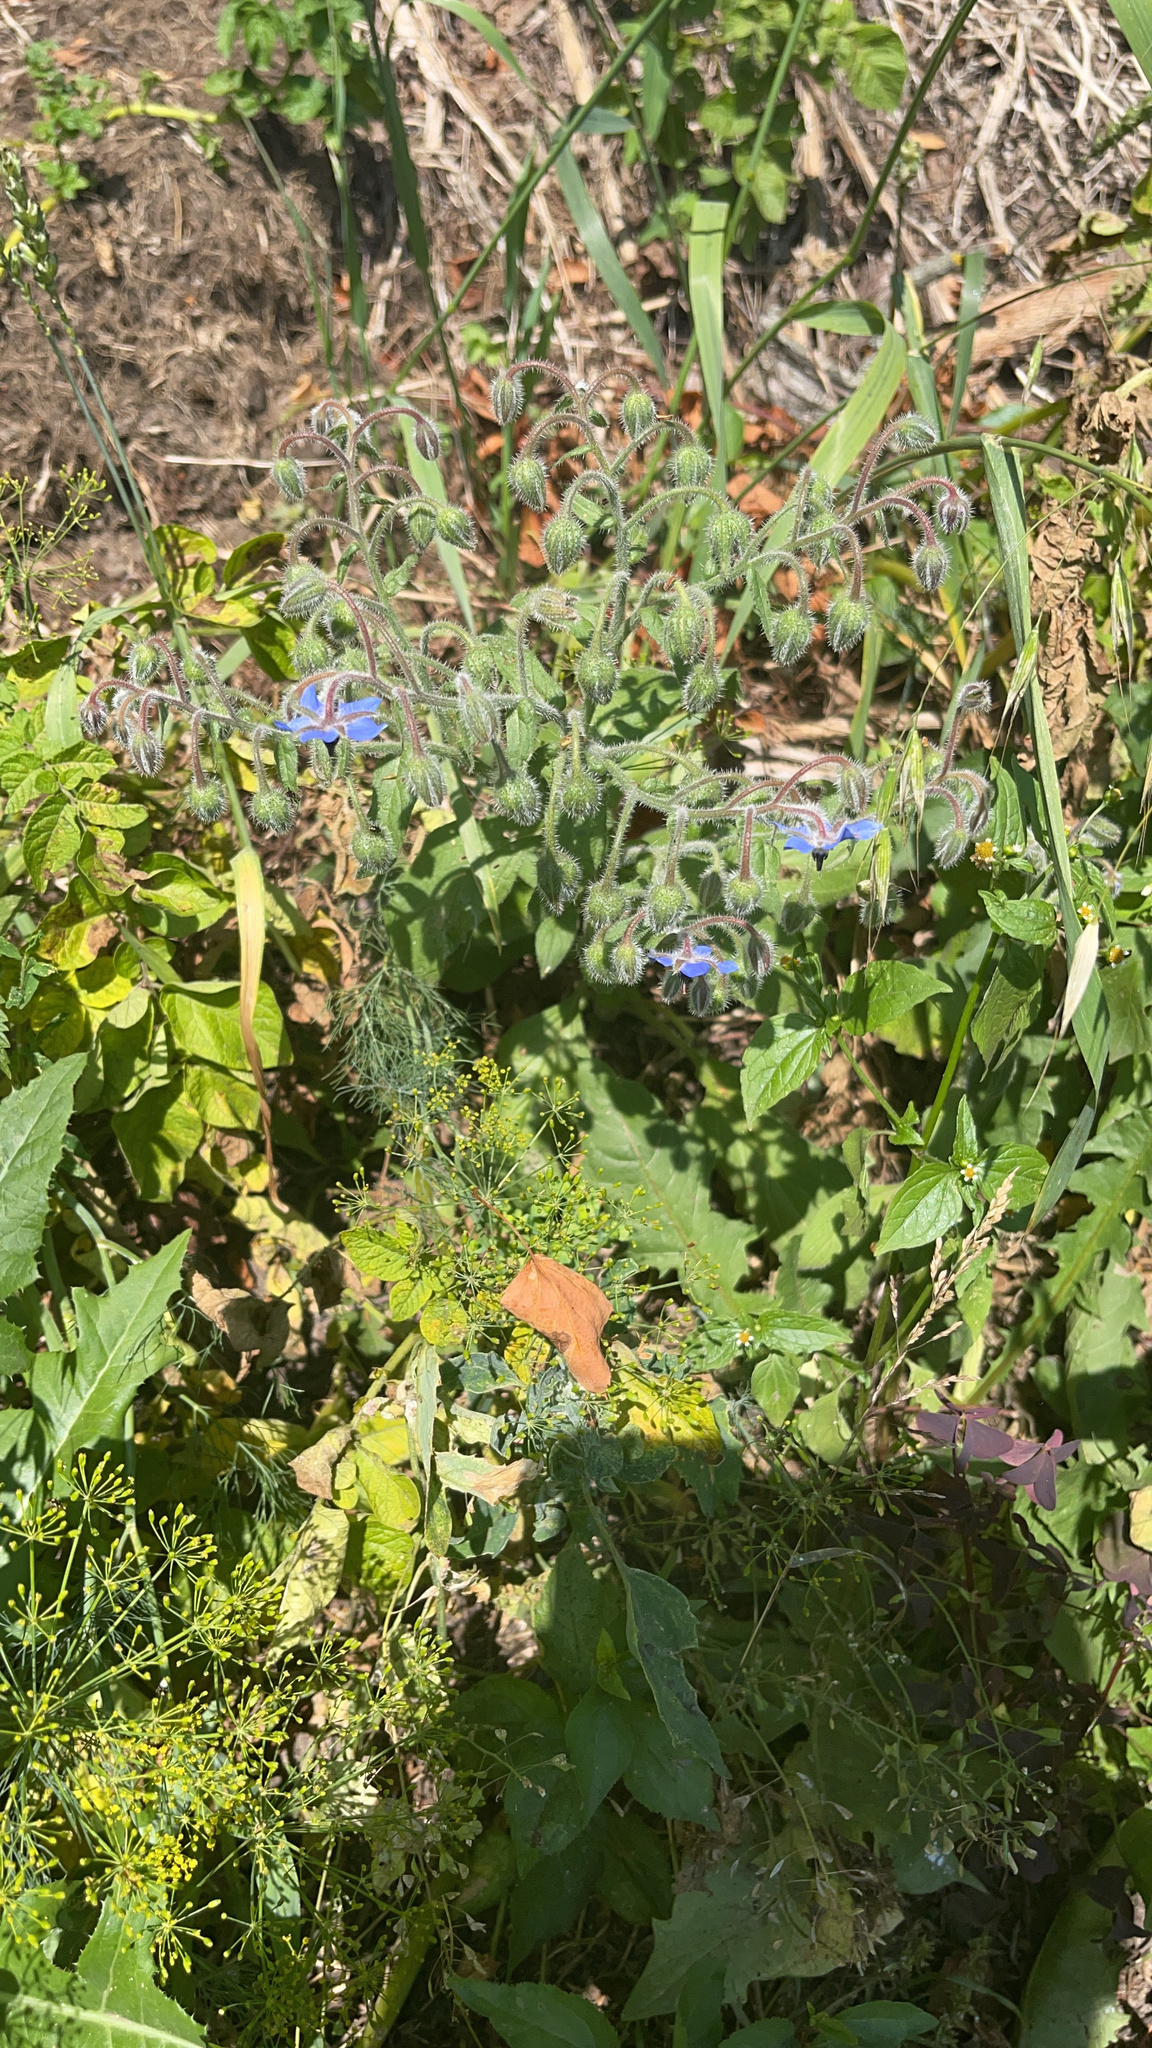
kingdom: Plantae
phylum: Tracheophyta
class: Magnoliopsida
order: Boraginales
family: Boraginaceae
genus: Borago
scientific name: Borago officinalis
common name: Borage
